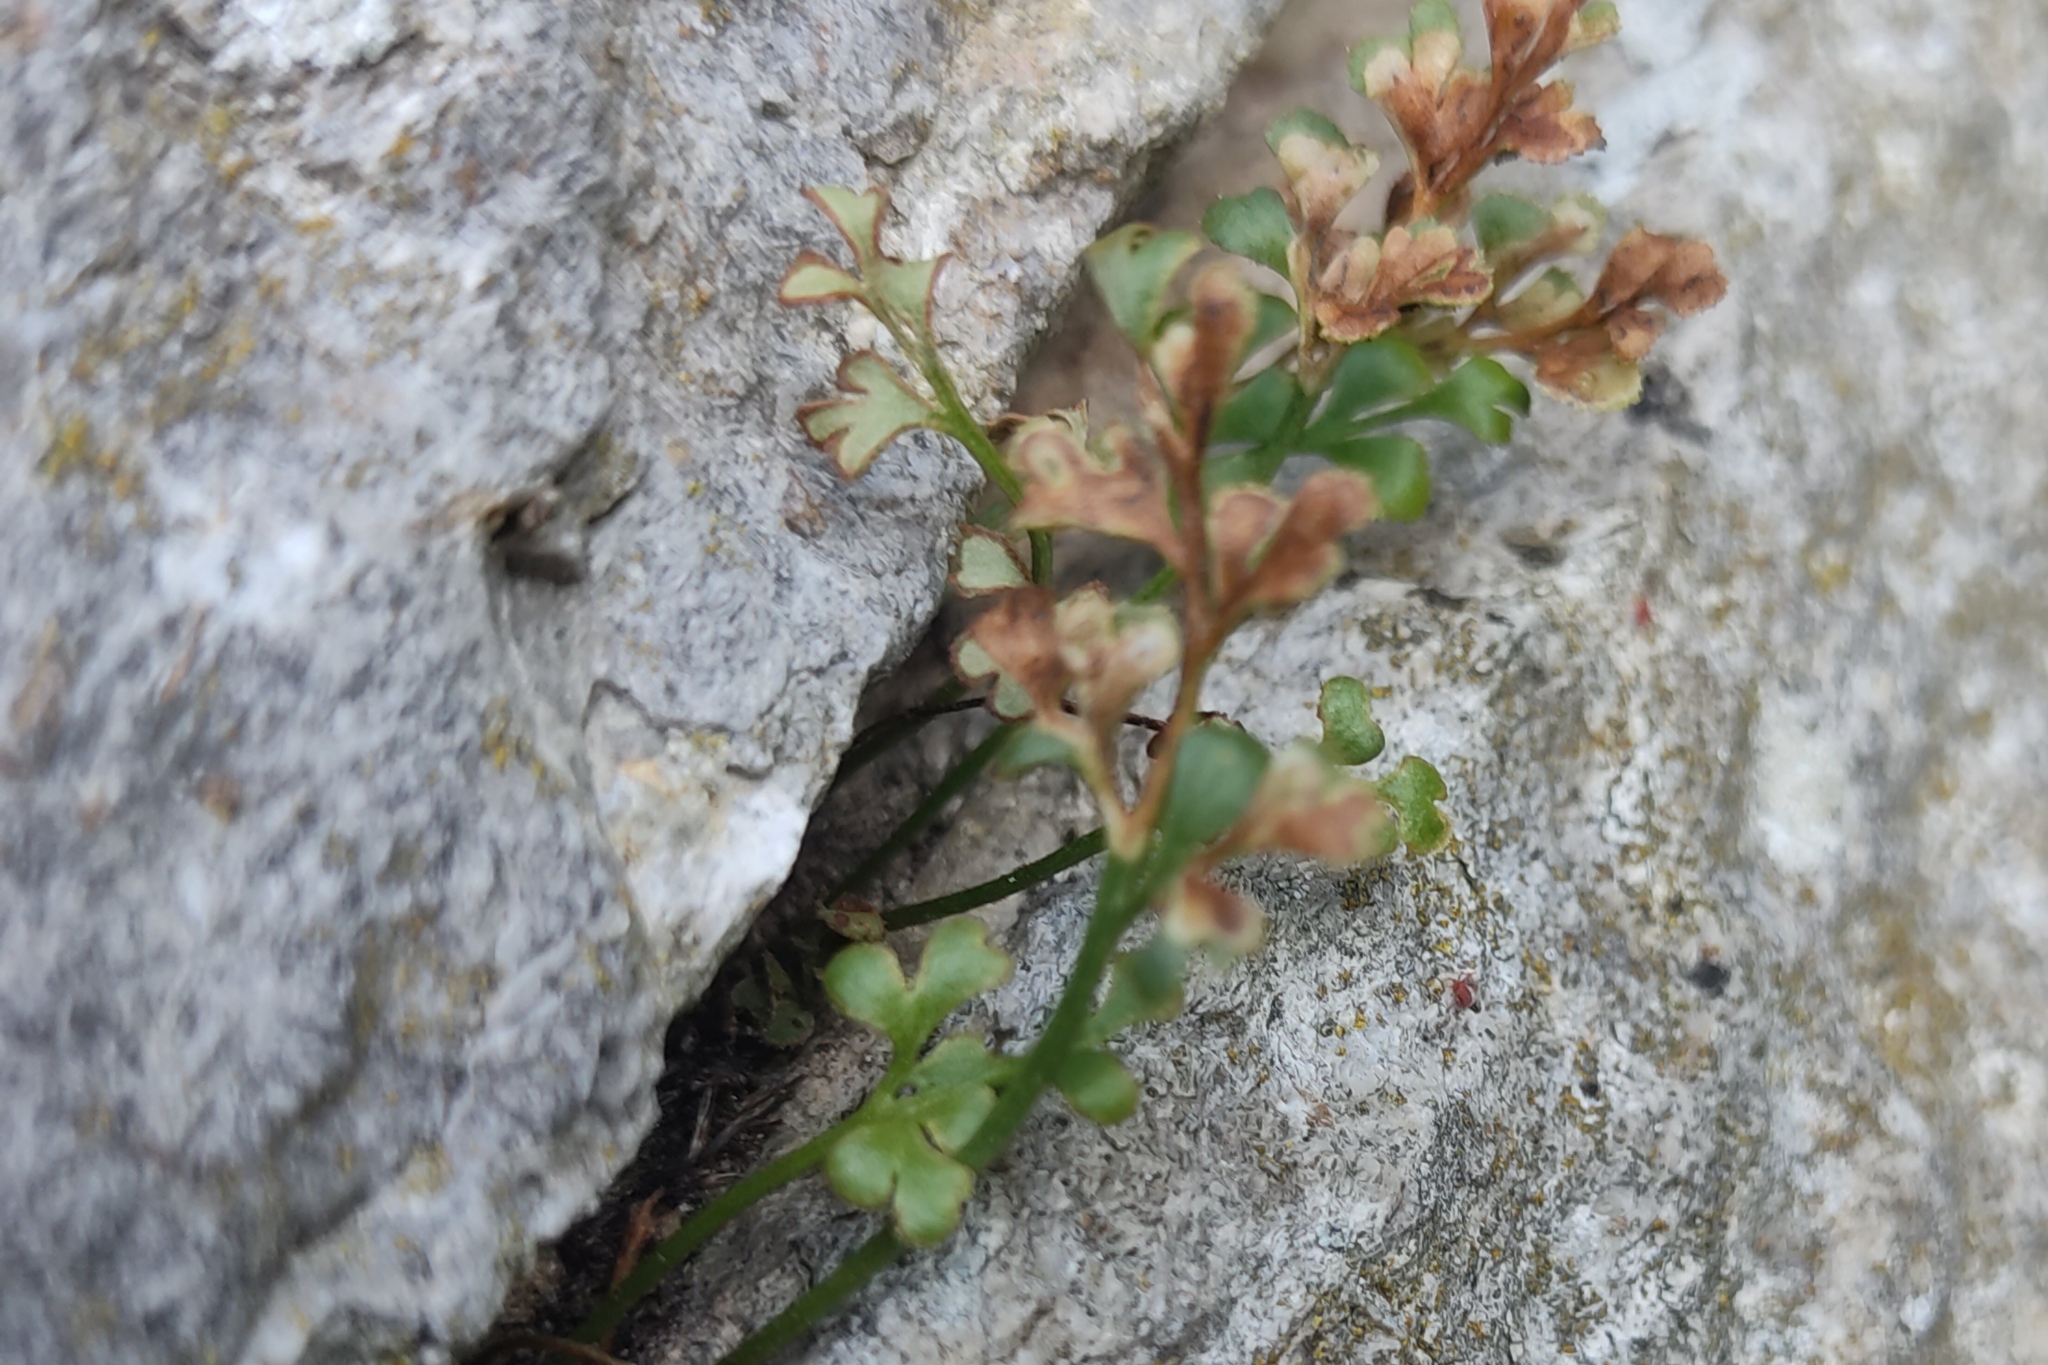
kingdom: Plantae
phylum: Tracheophyta
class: Polypodiopsida
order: Polypodiales
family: Aspleniaceae
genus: Asplenium
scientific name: Asplenium ruta-muraria
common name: Wall-rue
